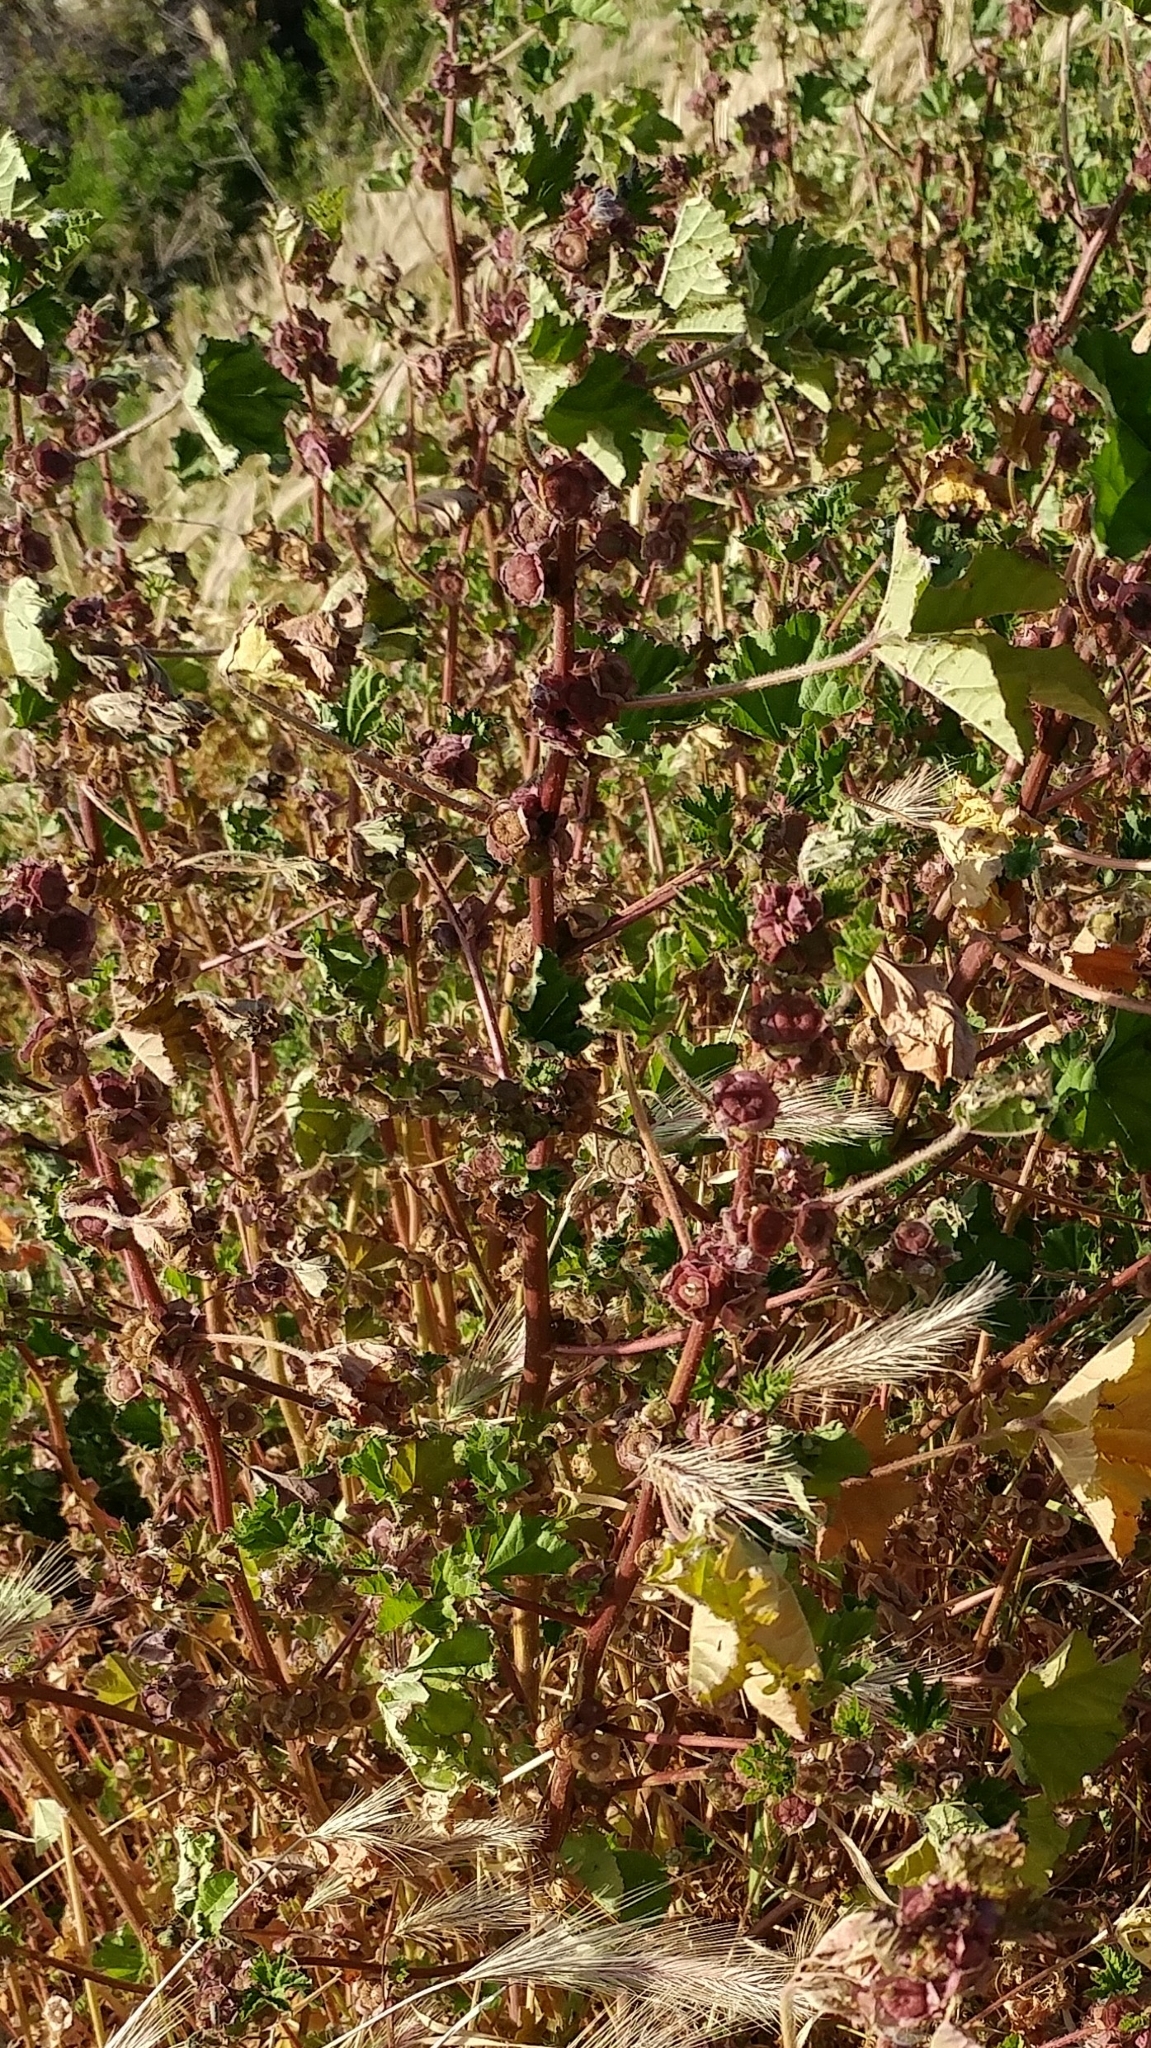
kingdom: Plantae
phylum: Tracheophyta
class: Magnoliopsida
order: Malvales
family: Malvaceae
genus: Malva
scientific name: Malva parviflora
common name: Least mallow
